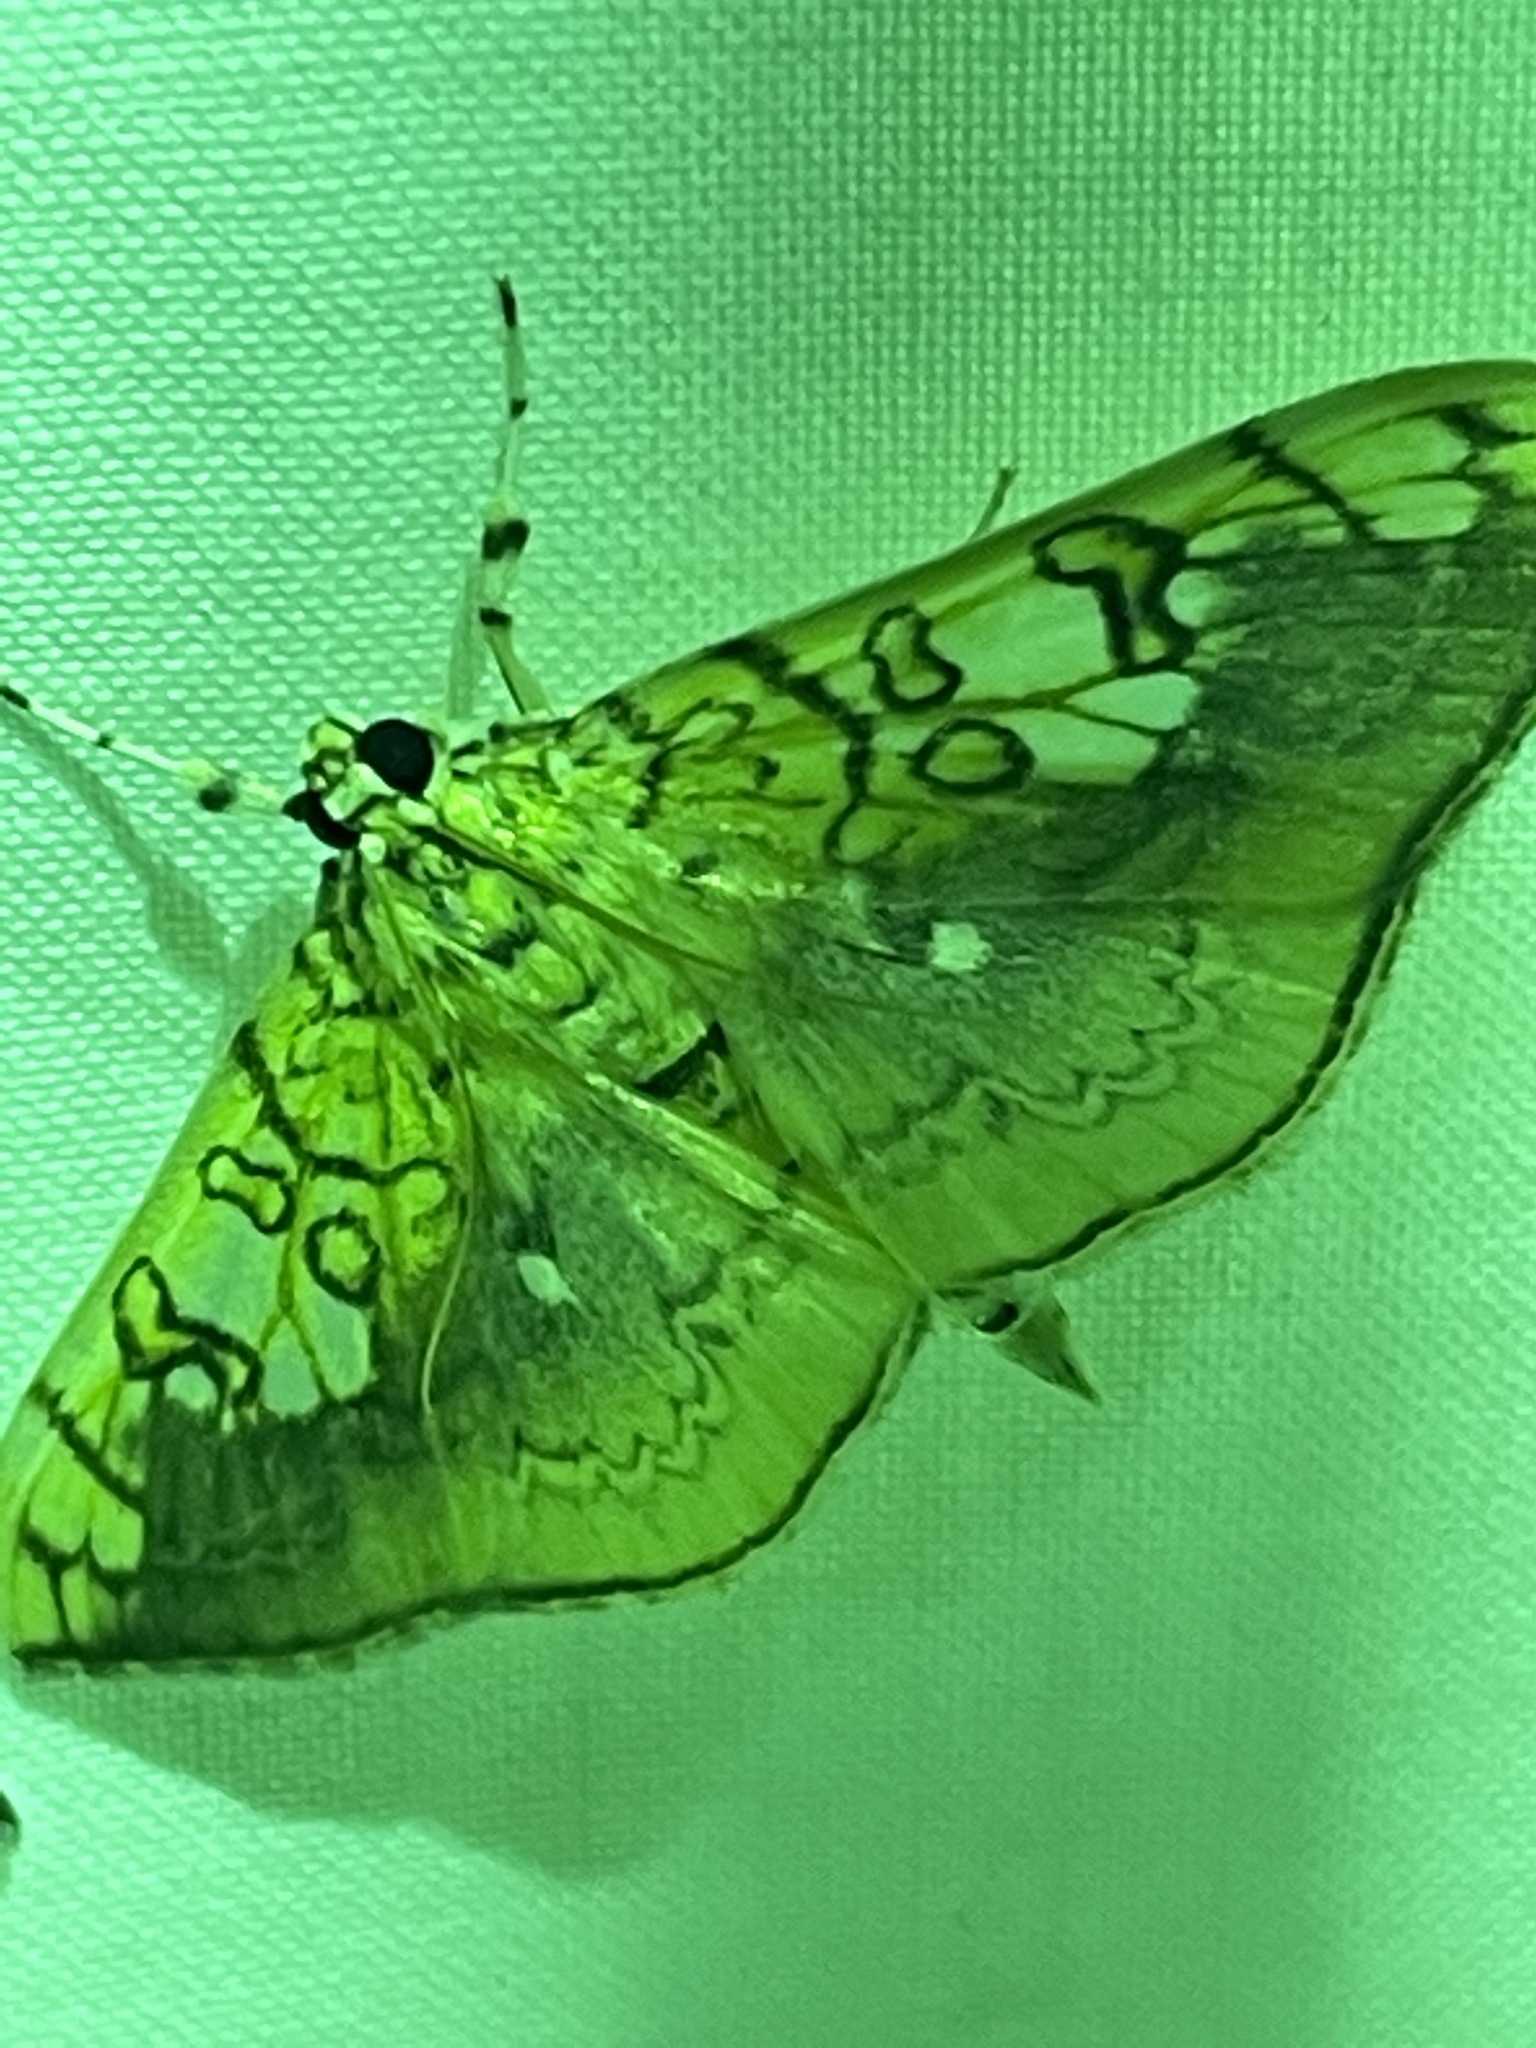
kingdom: Animalia
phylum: Arthropoda
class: Insecta
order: Lepidoptera
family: Crambidae
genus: Pantographa
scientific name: Pantographa limata
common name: Basswood leafroller moth
